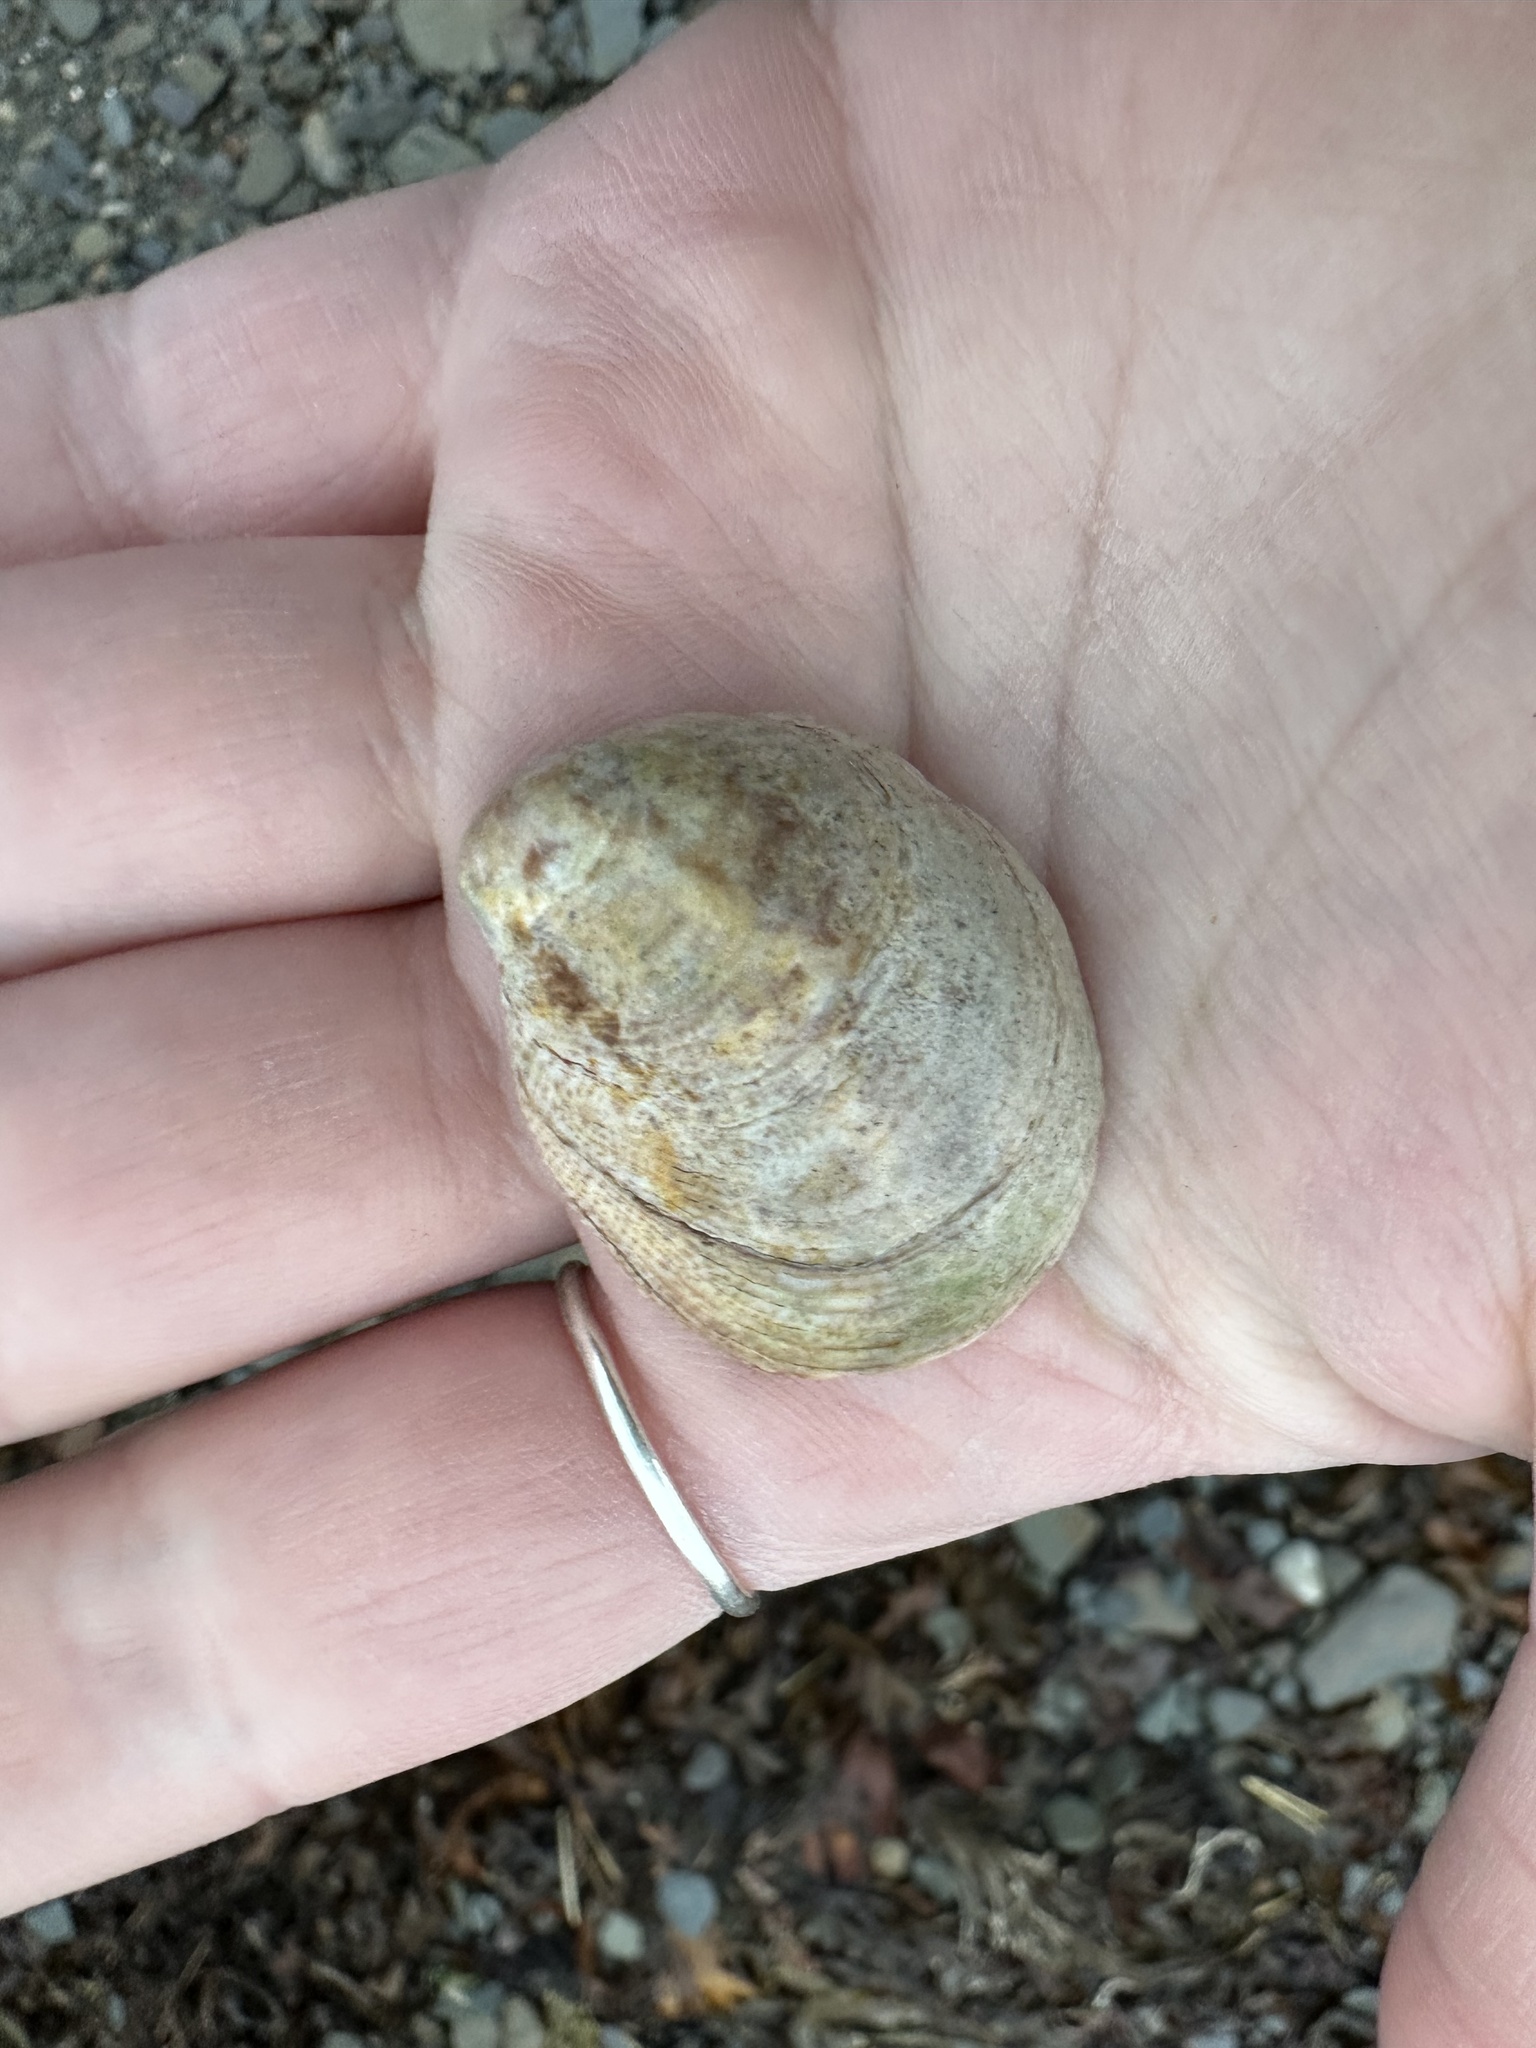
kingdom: Animalia
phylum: Mollusca
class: Gastropoda
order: Littorinimorpha
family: Calyptraeidae
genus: Crepidula
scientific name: Crepidula fornicata
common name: Slipper limpet
